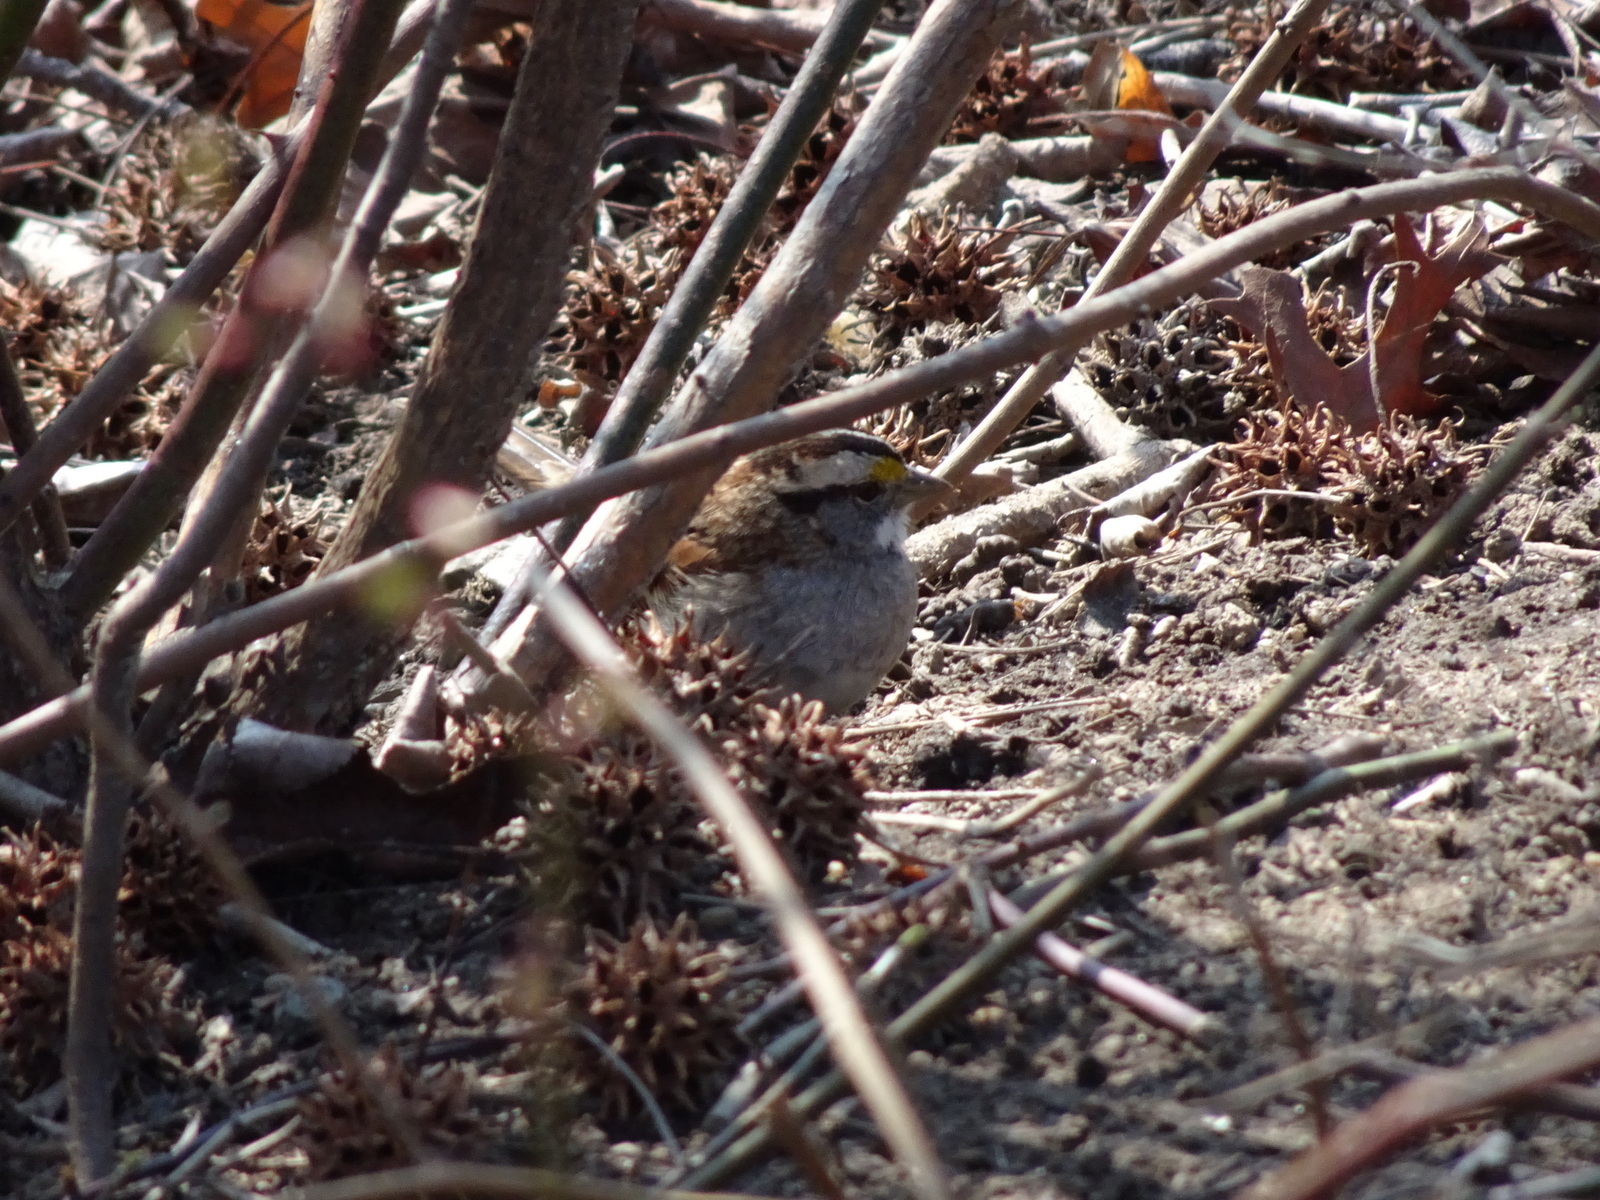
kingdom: Animalia
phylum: Chordata
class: Aves
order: Passeriformes
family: Passerellidae
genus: Zonotrichia
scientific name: Zonotrichia albicollis
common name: White-throated sparrow
